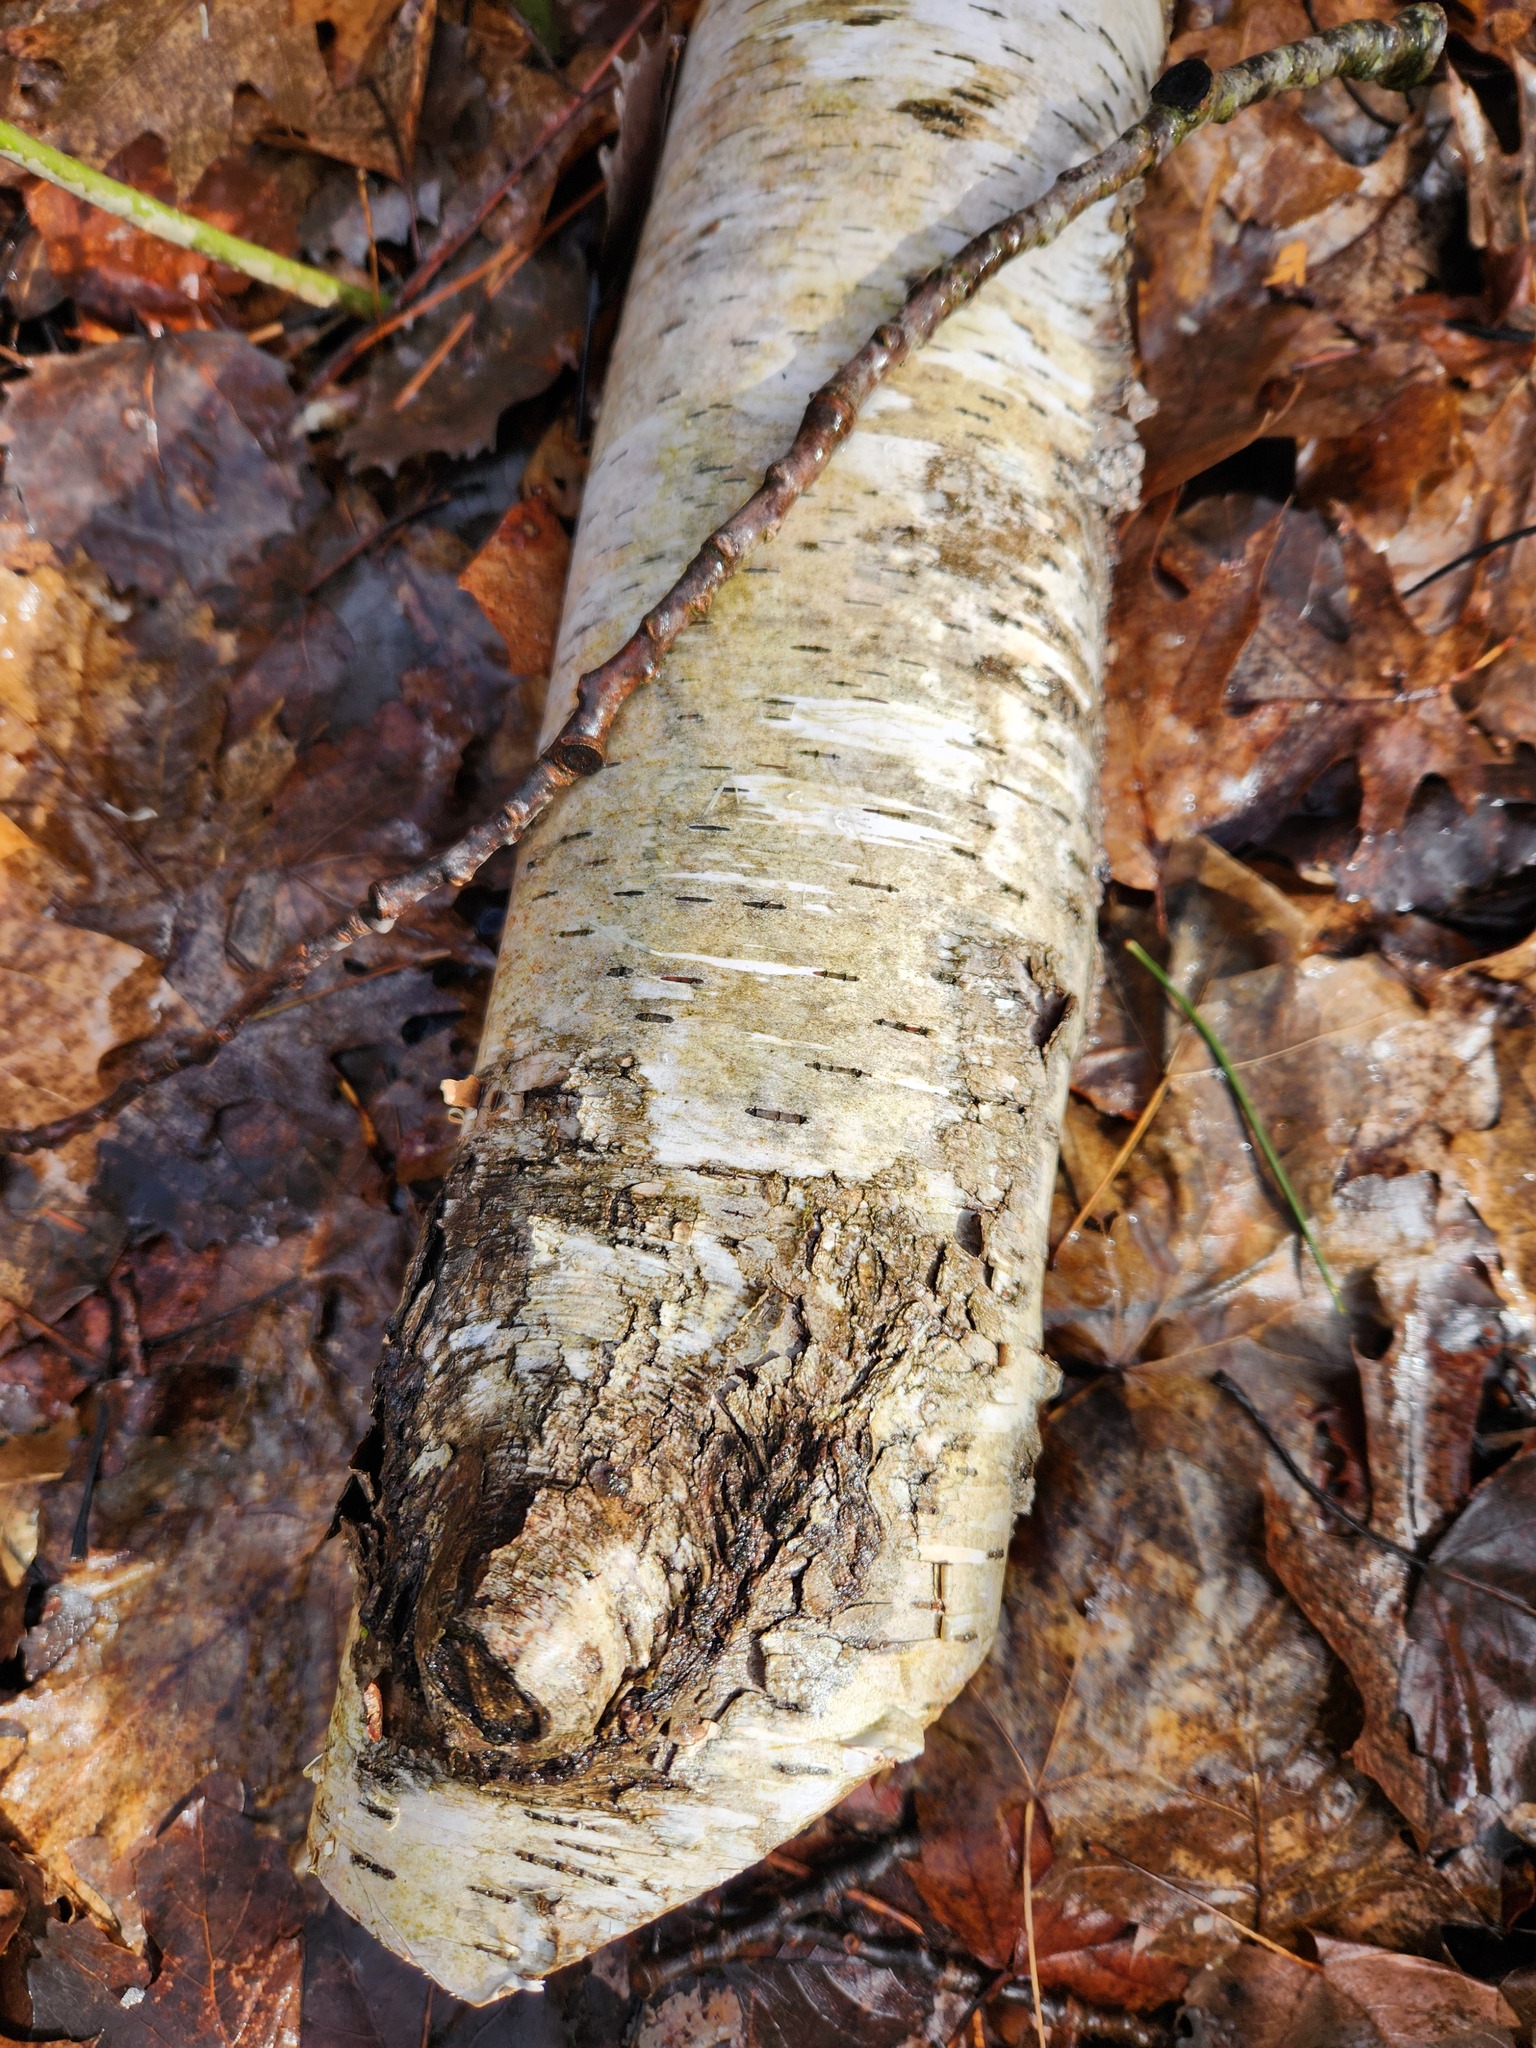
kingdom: Plantae
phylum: Tracheophyta
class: Magnoliopsida
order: Fagales
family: Betulaceae
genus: Betula
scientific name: Betula papyrifera
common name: Paper birch
